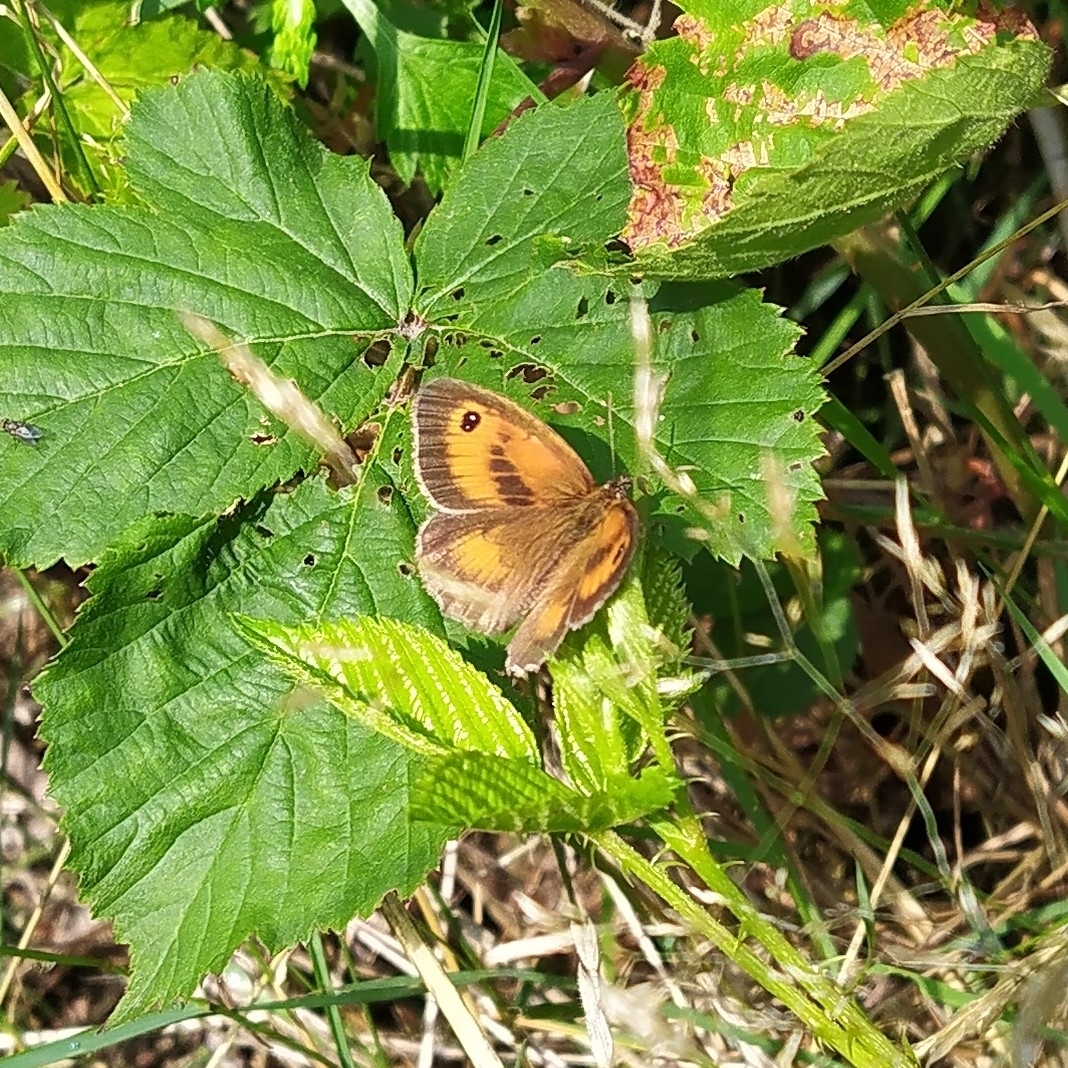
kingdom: Animalia
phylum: Arthropoda
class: Insecta
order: Lepidoptera
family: Nymphalidae
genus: Pyronia
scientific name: Pyronia tithonus
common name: Gatekeeper
